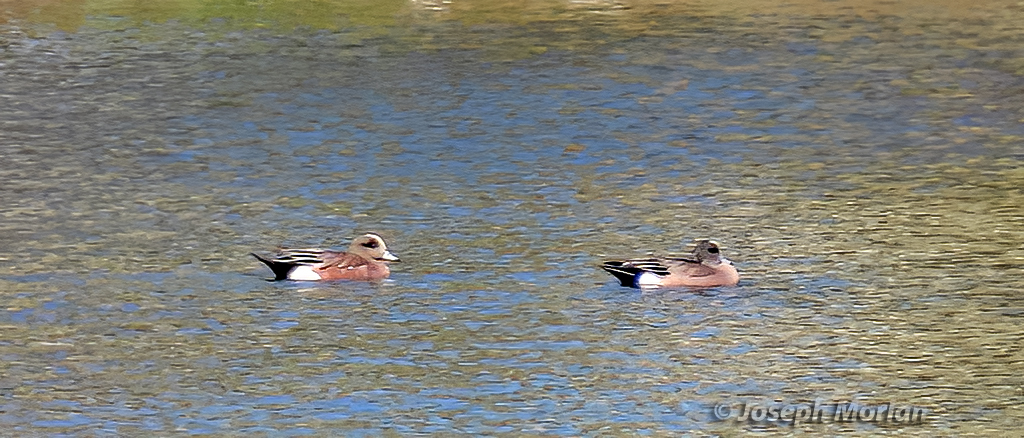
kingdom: Animalia
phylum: Chordata
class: Aves
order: Anseriformes
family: Anatidae
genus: Mareca
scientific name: Mareca americana
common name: American wigeon
